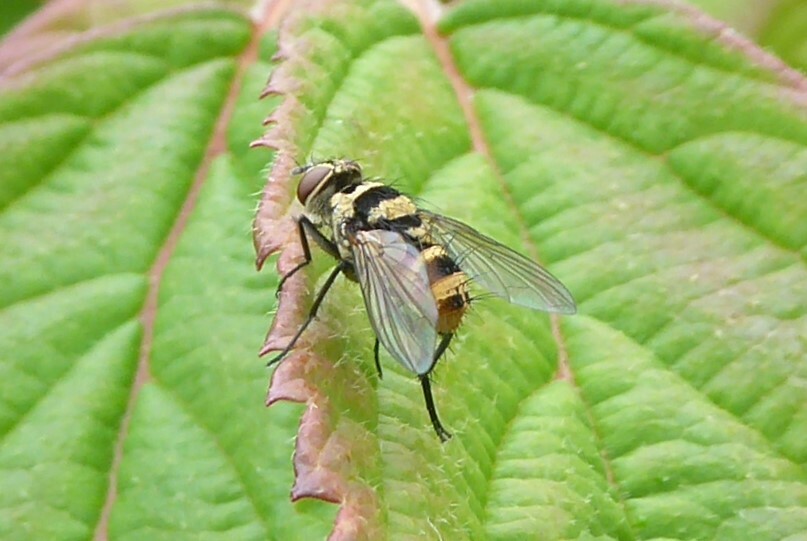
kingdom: Animalia
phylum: Arthropoda
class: Insecta
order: Diptera
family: Tachinidae
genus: Trigonospila
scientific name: Trigonospila brevifacies
